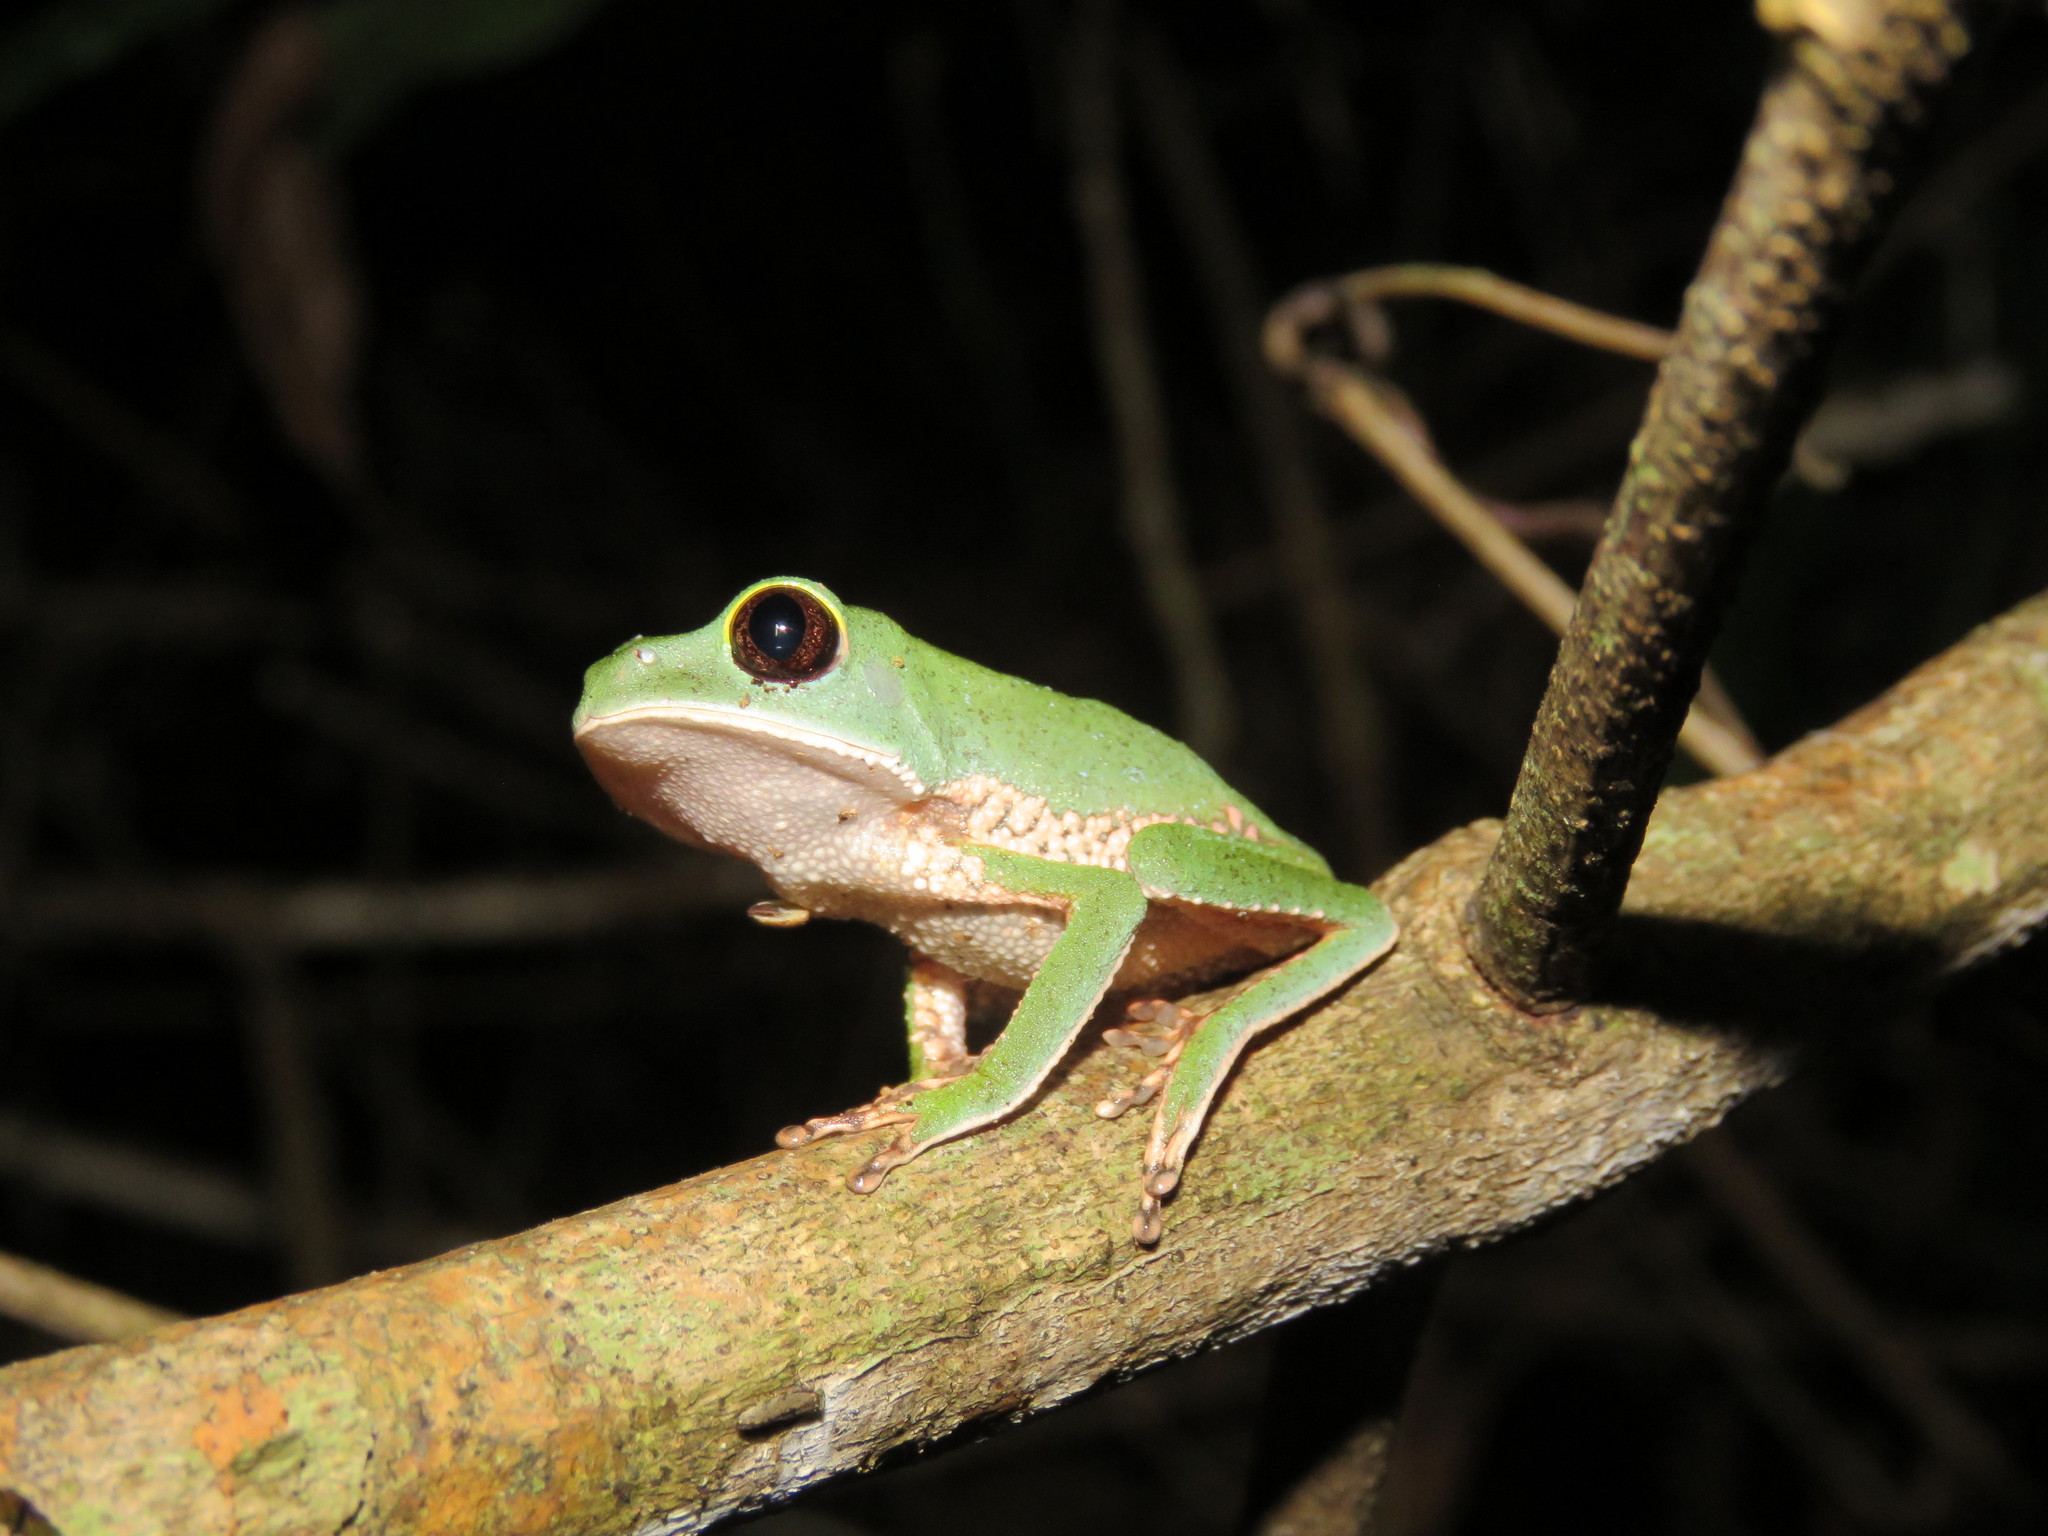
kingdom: Animalia
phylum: Chordata
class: Amphibia
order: Anura
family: Phyllomedusidae
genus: Phyllomedusa
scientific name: Phyllomedusa tarsius
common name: Brownbelly leaf frog
